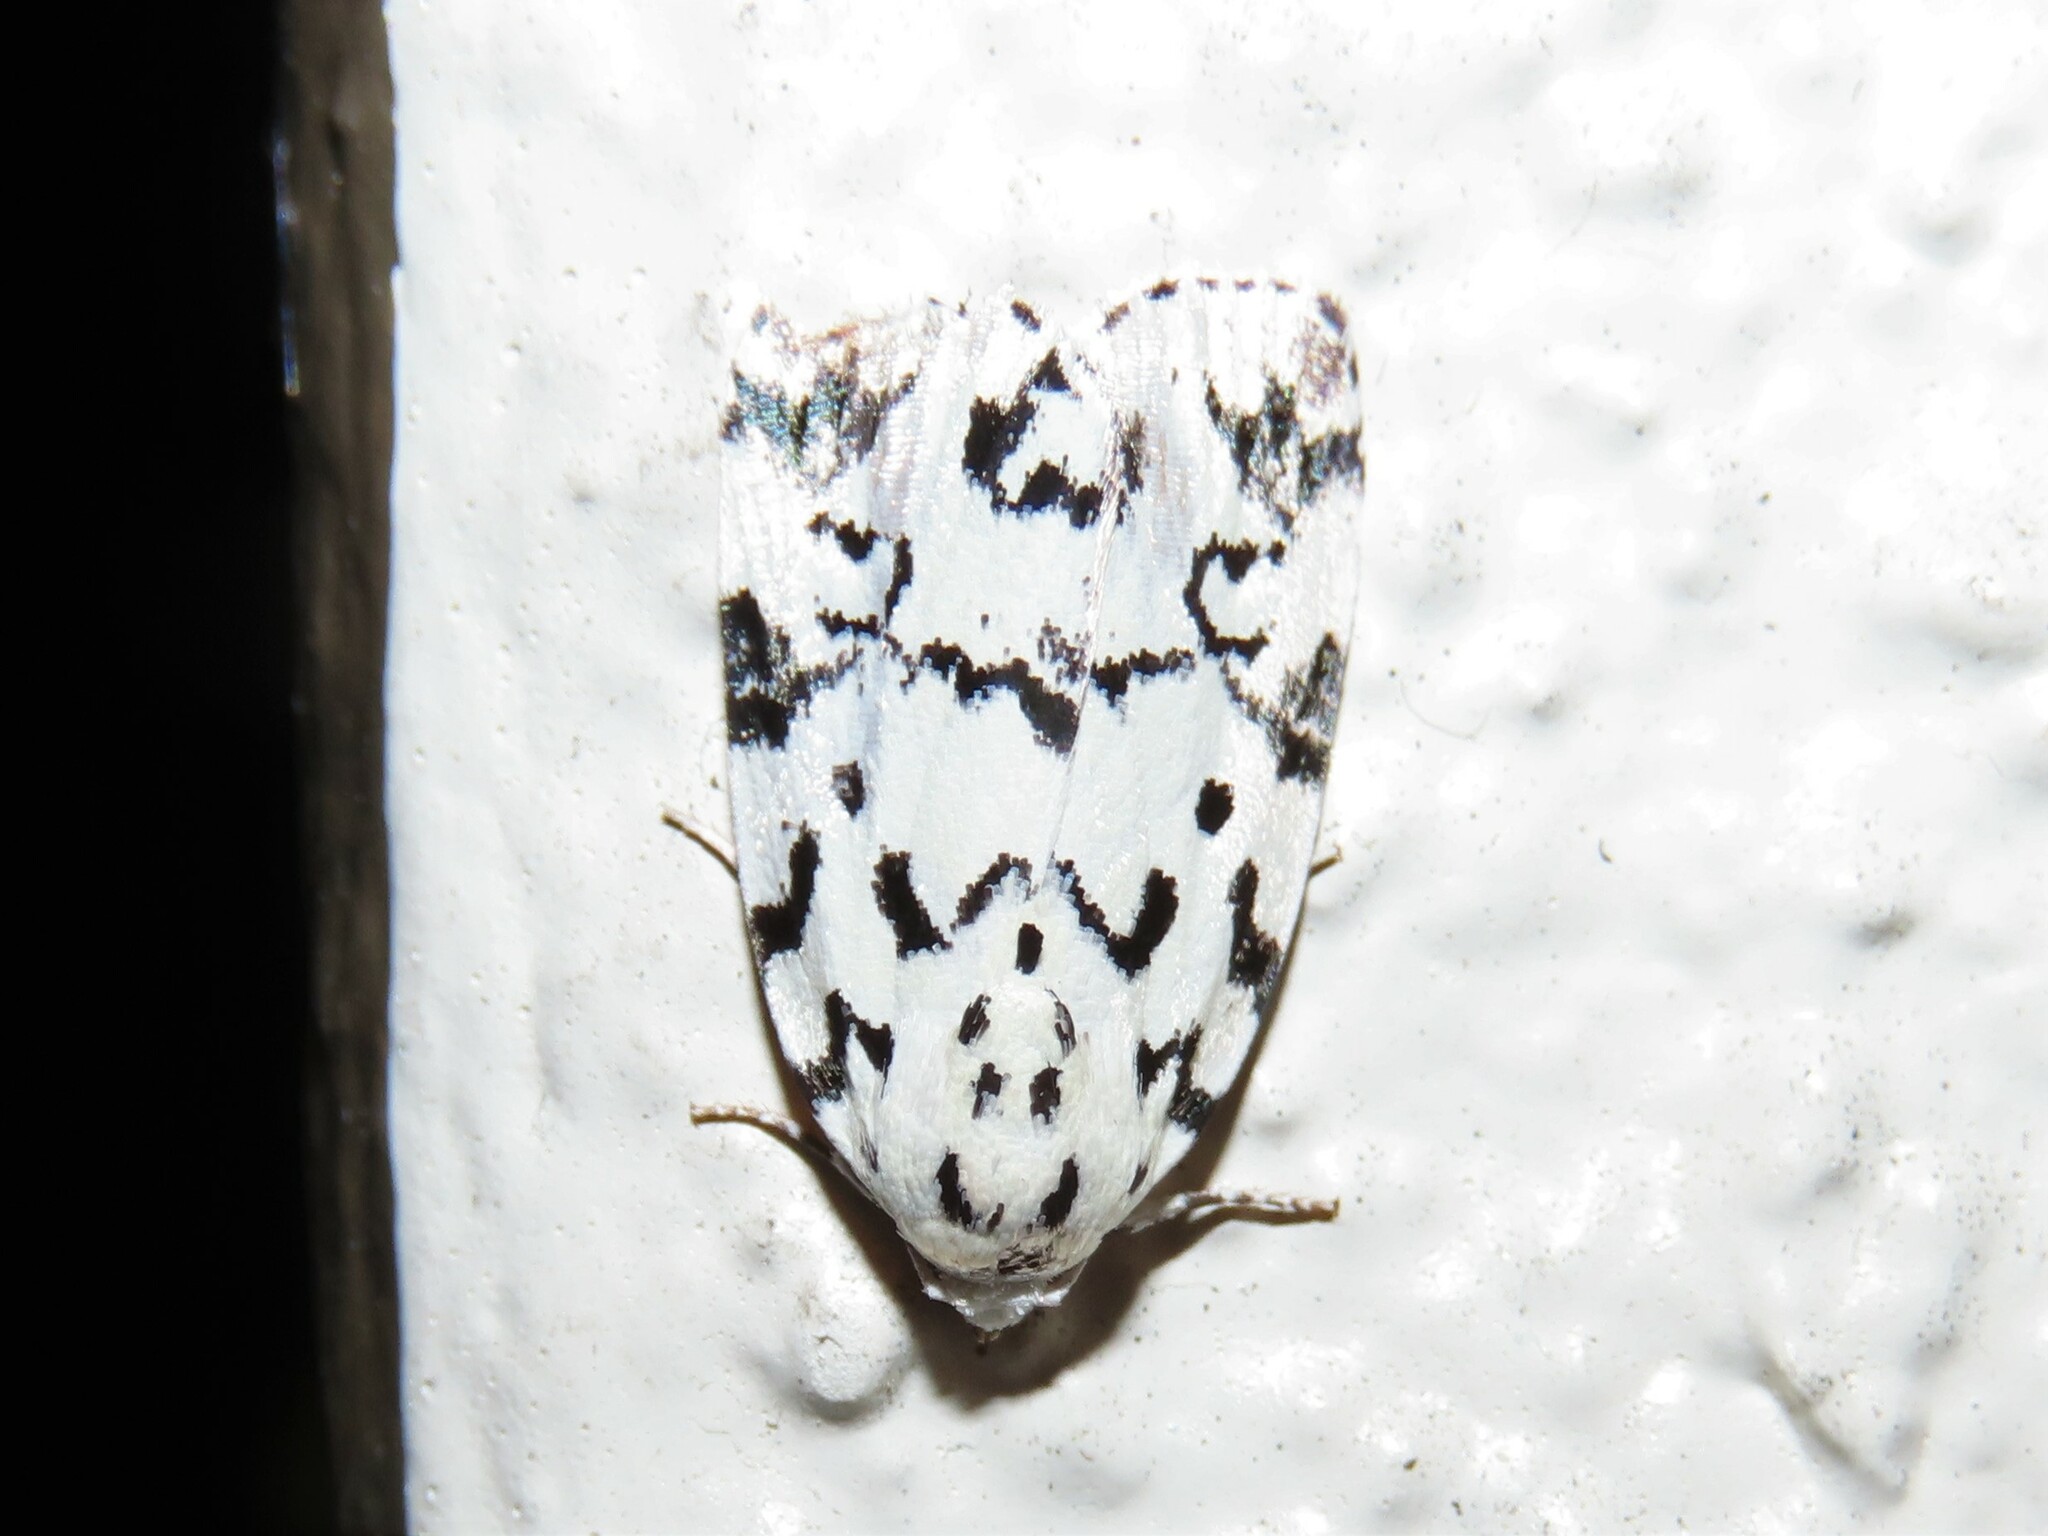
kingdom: Animalia
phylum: Arthropoda
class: Insecta
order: Lepidoptera
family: Noctuidae
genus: Polygrammate
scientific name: Polygrammate hebraeicum
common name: Hebrew moth
